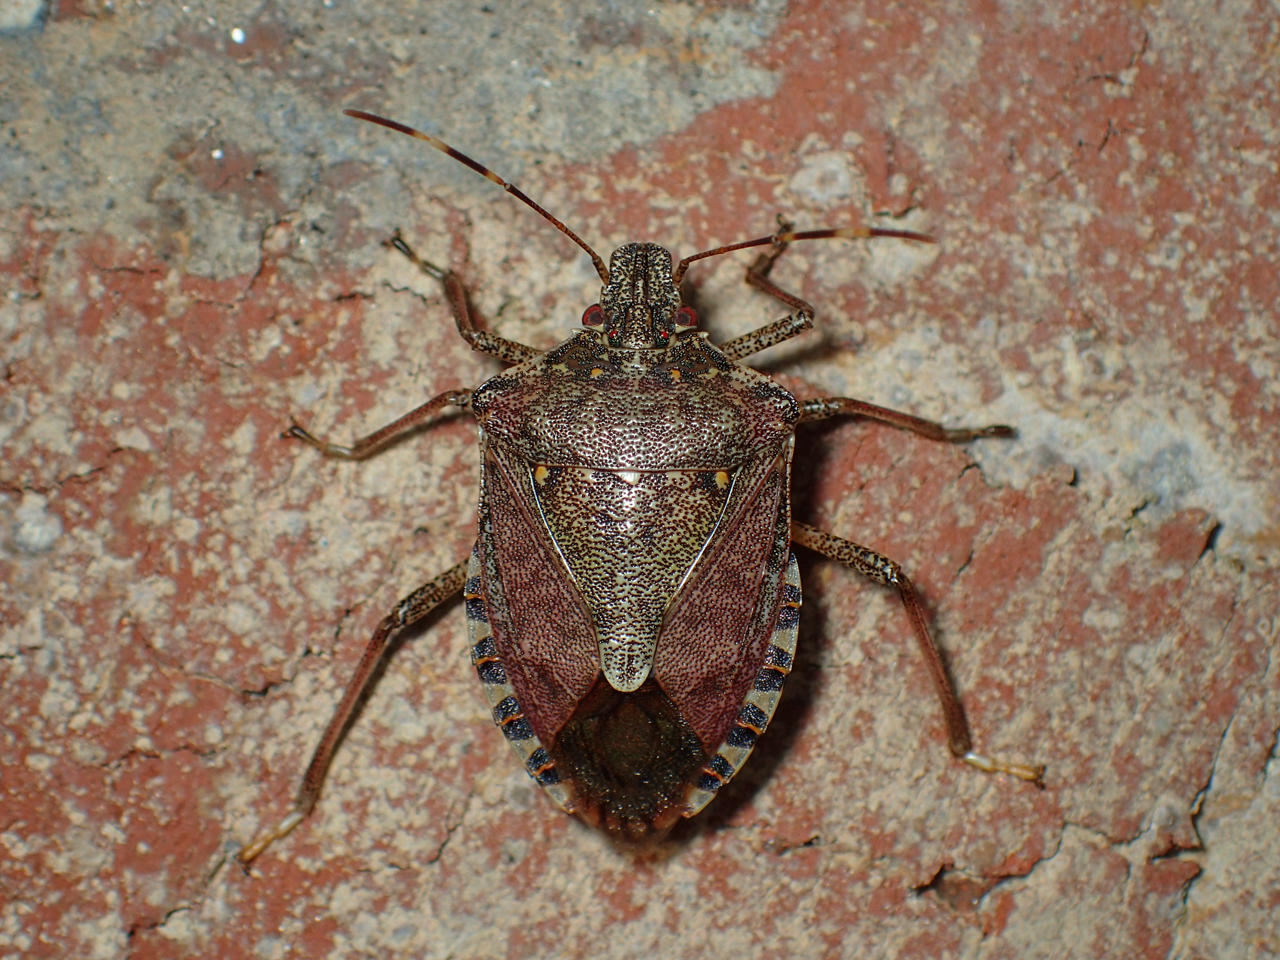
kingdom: Animalia
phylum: Arthropoda
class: Insecta
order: Hemiptera
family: Pentatomidae
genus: Halyomorpha
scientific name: Halyomorpha halys
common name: Brown marmorated stink bug
